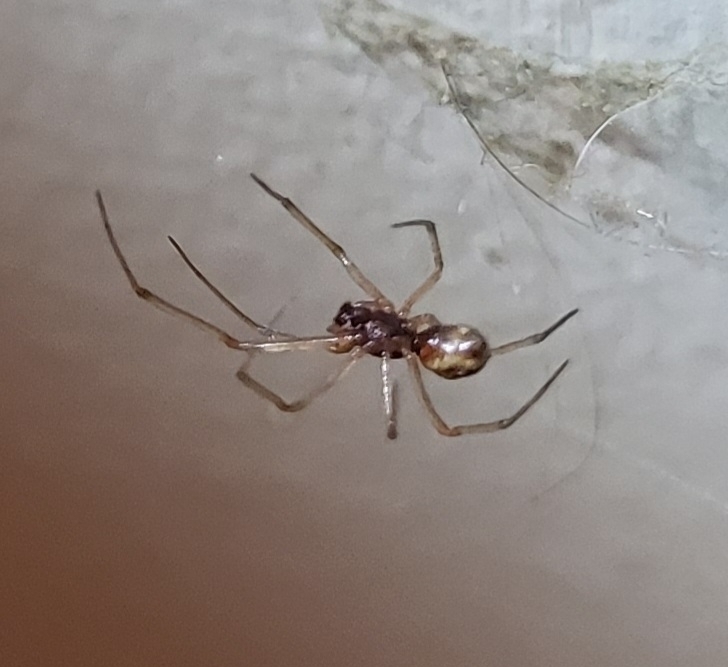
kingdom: Animalia
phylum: Arthropoda
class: Arachnida
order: Araneae
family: Theridiidae
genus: Steatoda
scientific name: Steatoda triangulosa
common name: Triangulate bud spider
